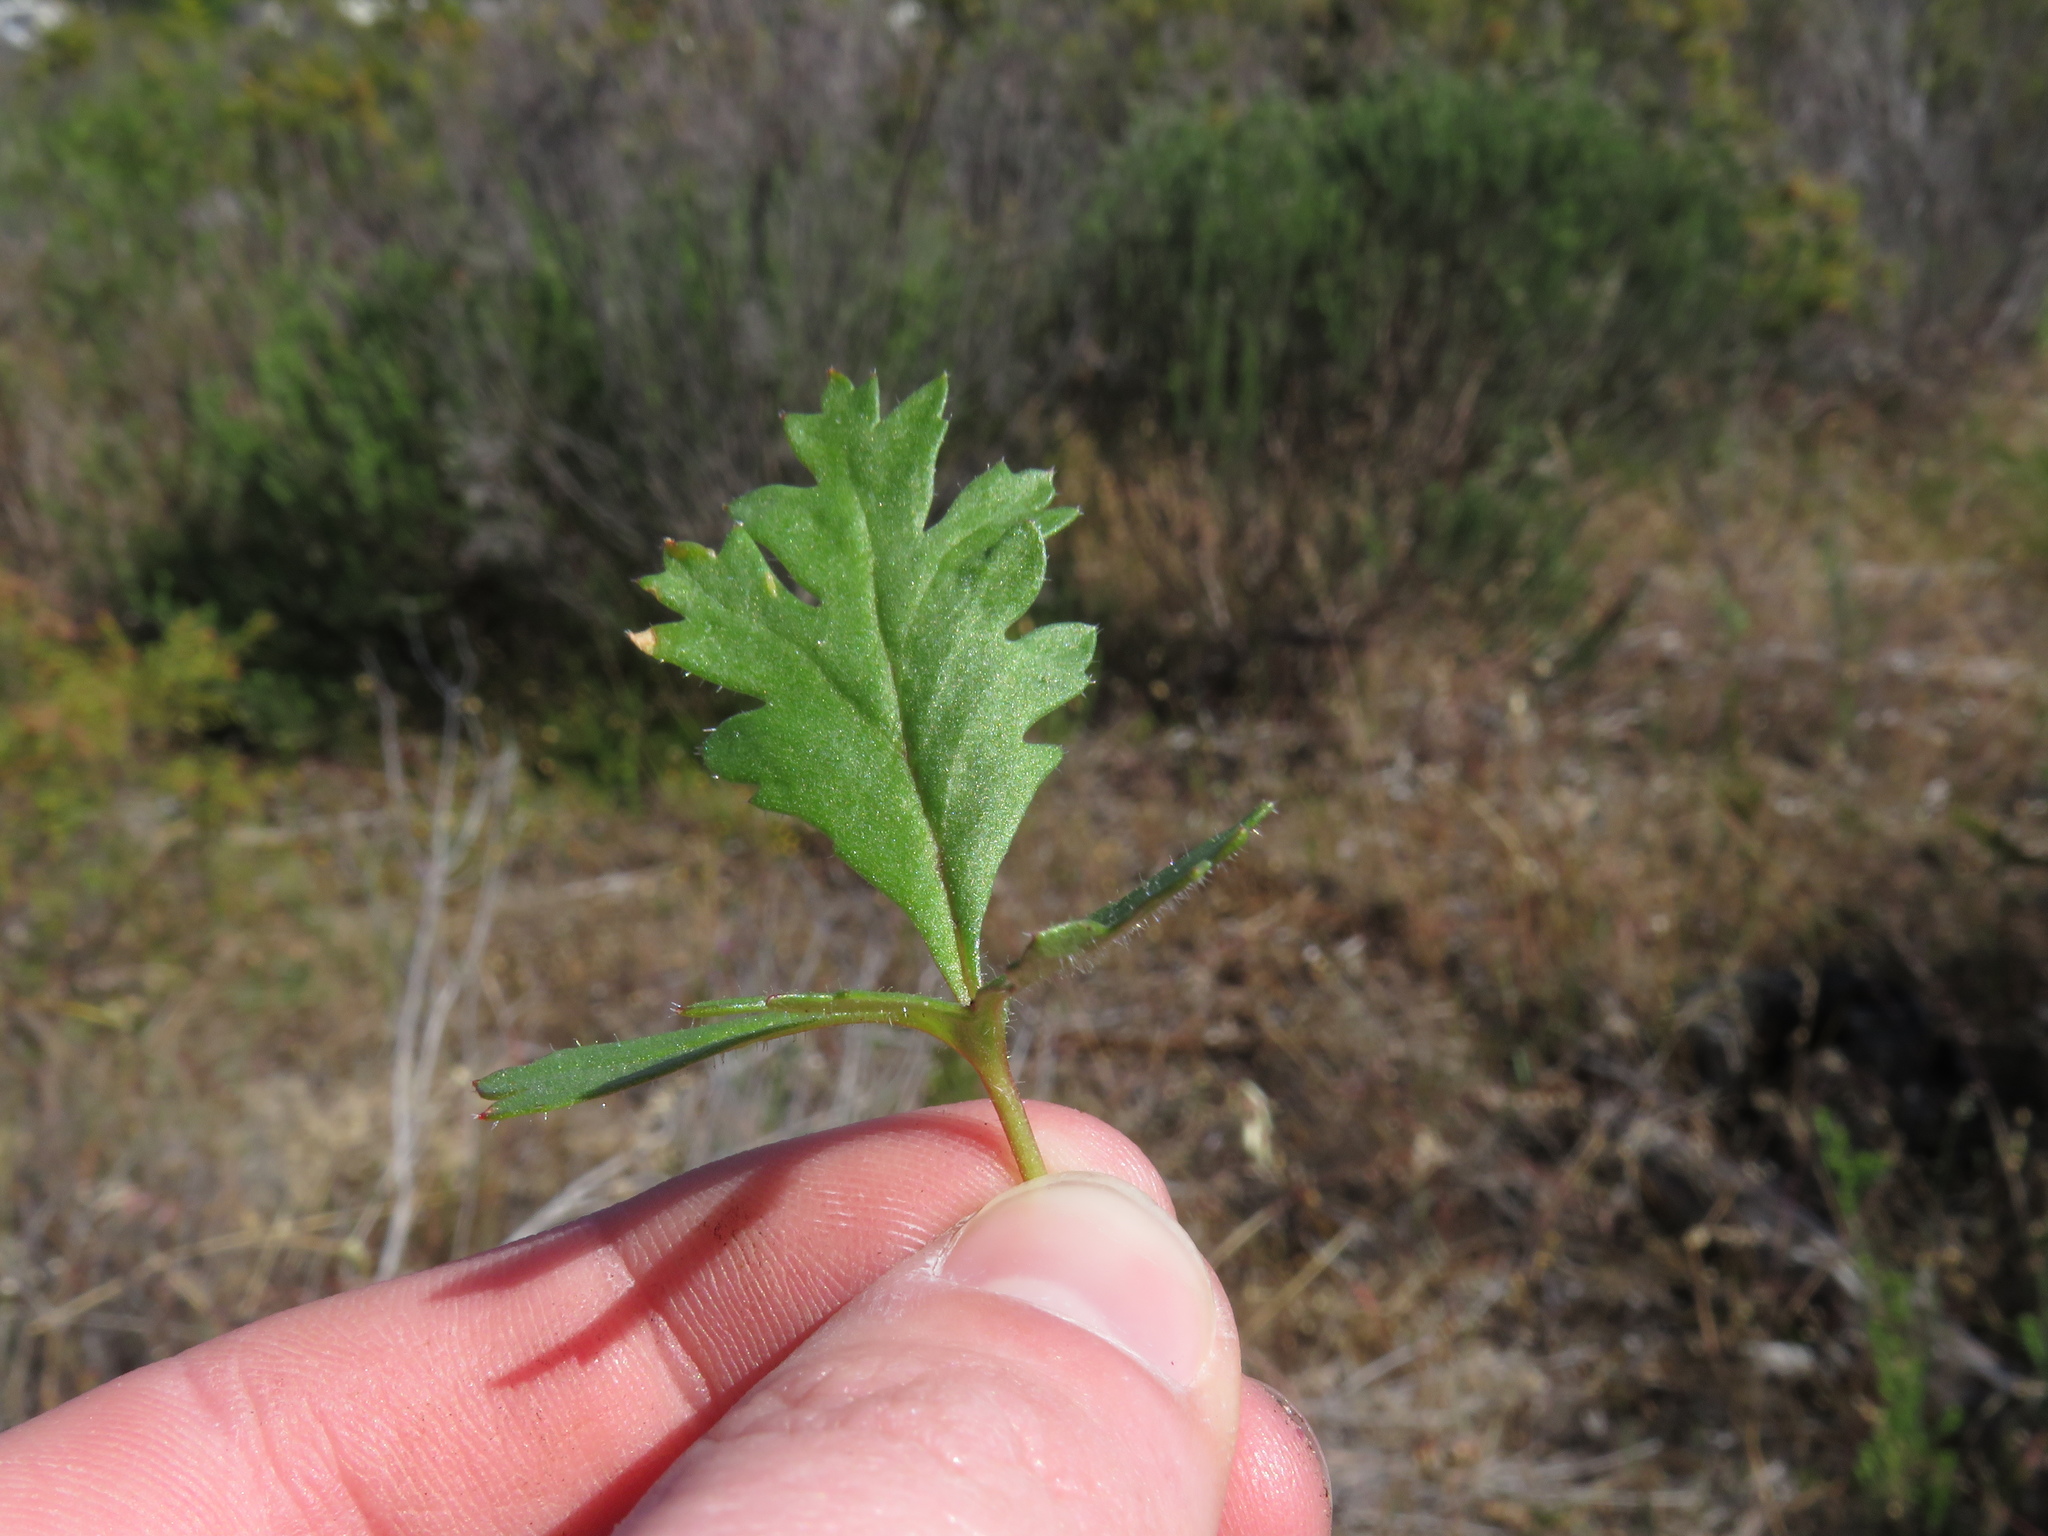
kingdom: Plantae
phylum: Tracheophyta
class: Magnoliopsida
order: Geraniales
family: Geraniaceae
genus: Pelargonium
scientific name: Pelargonium triste
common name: Night-scent pelargonium
